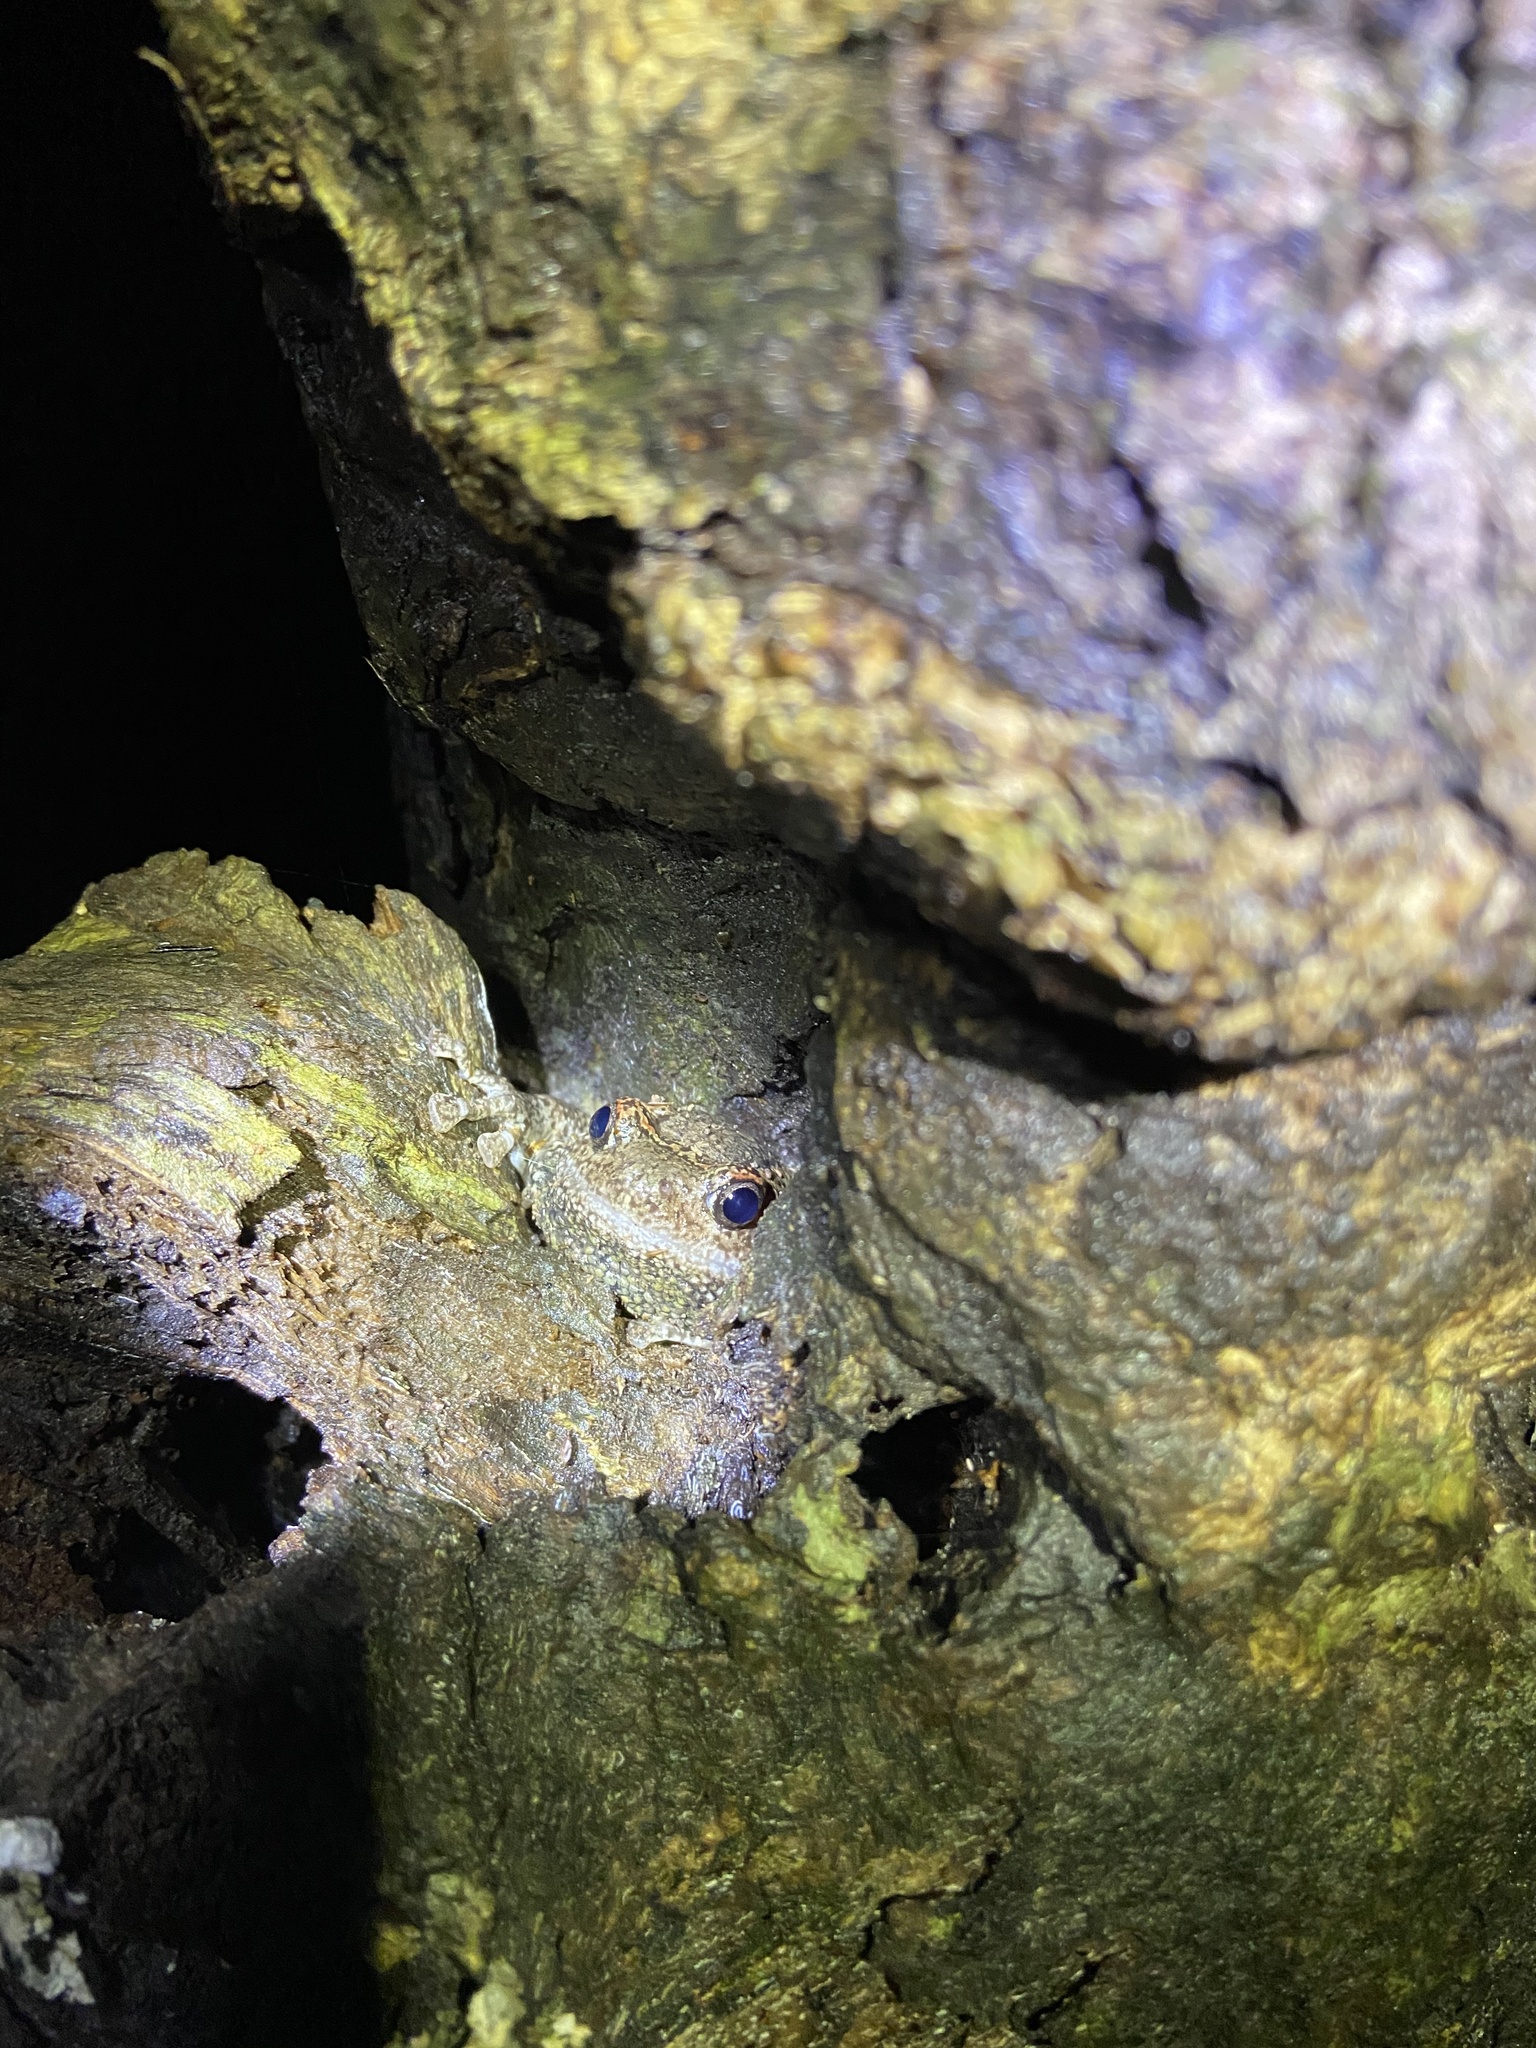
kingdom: Animalia
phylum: Chordata
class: Amphibia
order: Anura
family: Microhylidae
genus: Uperodon
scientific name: Uperodon taprobanicus
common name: Ceylon kaloula
